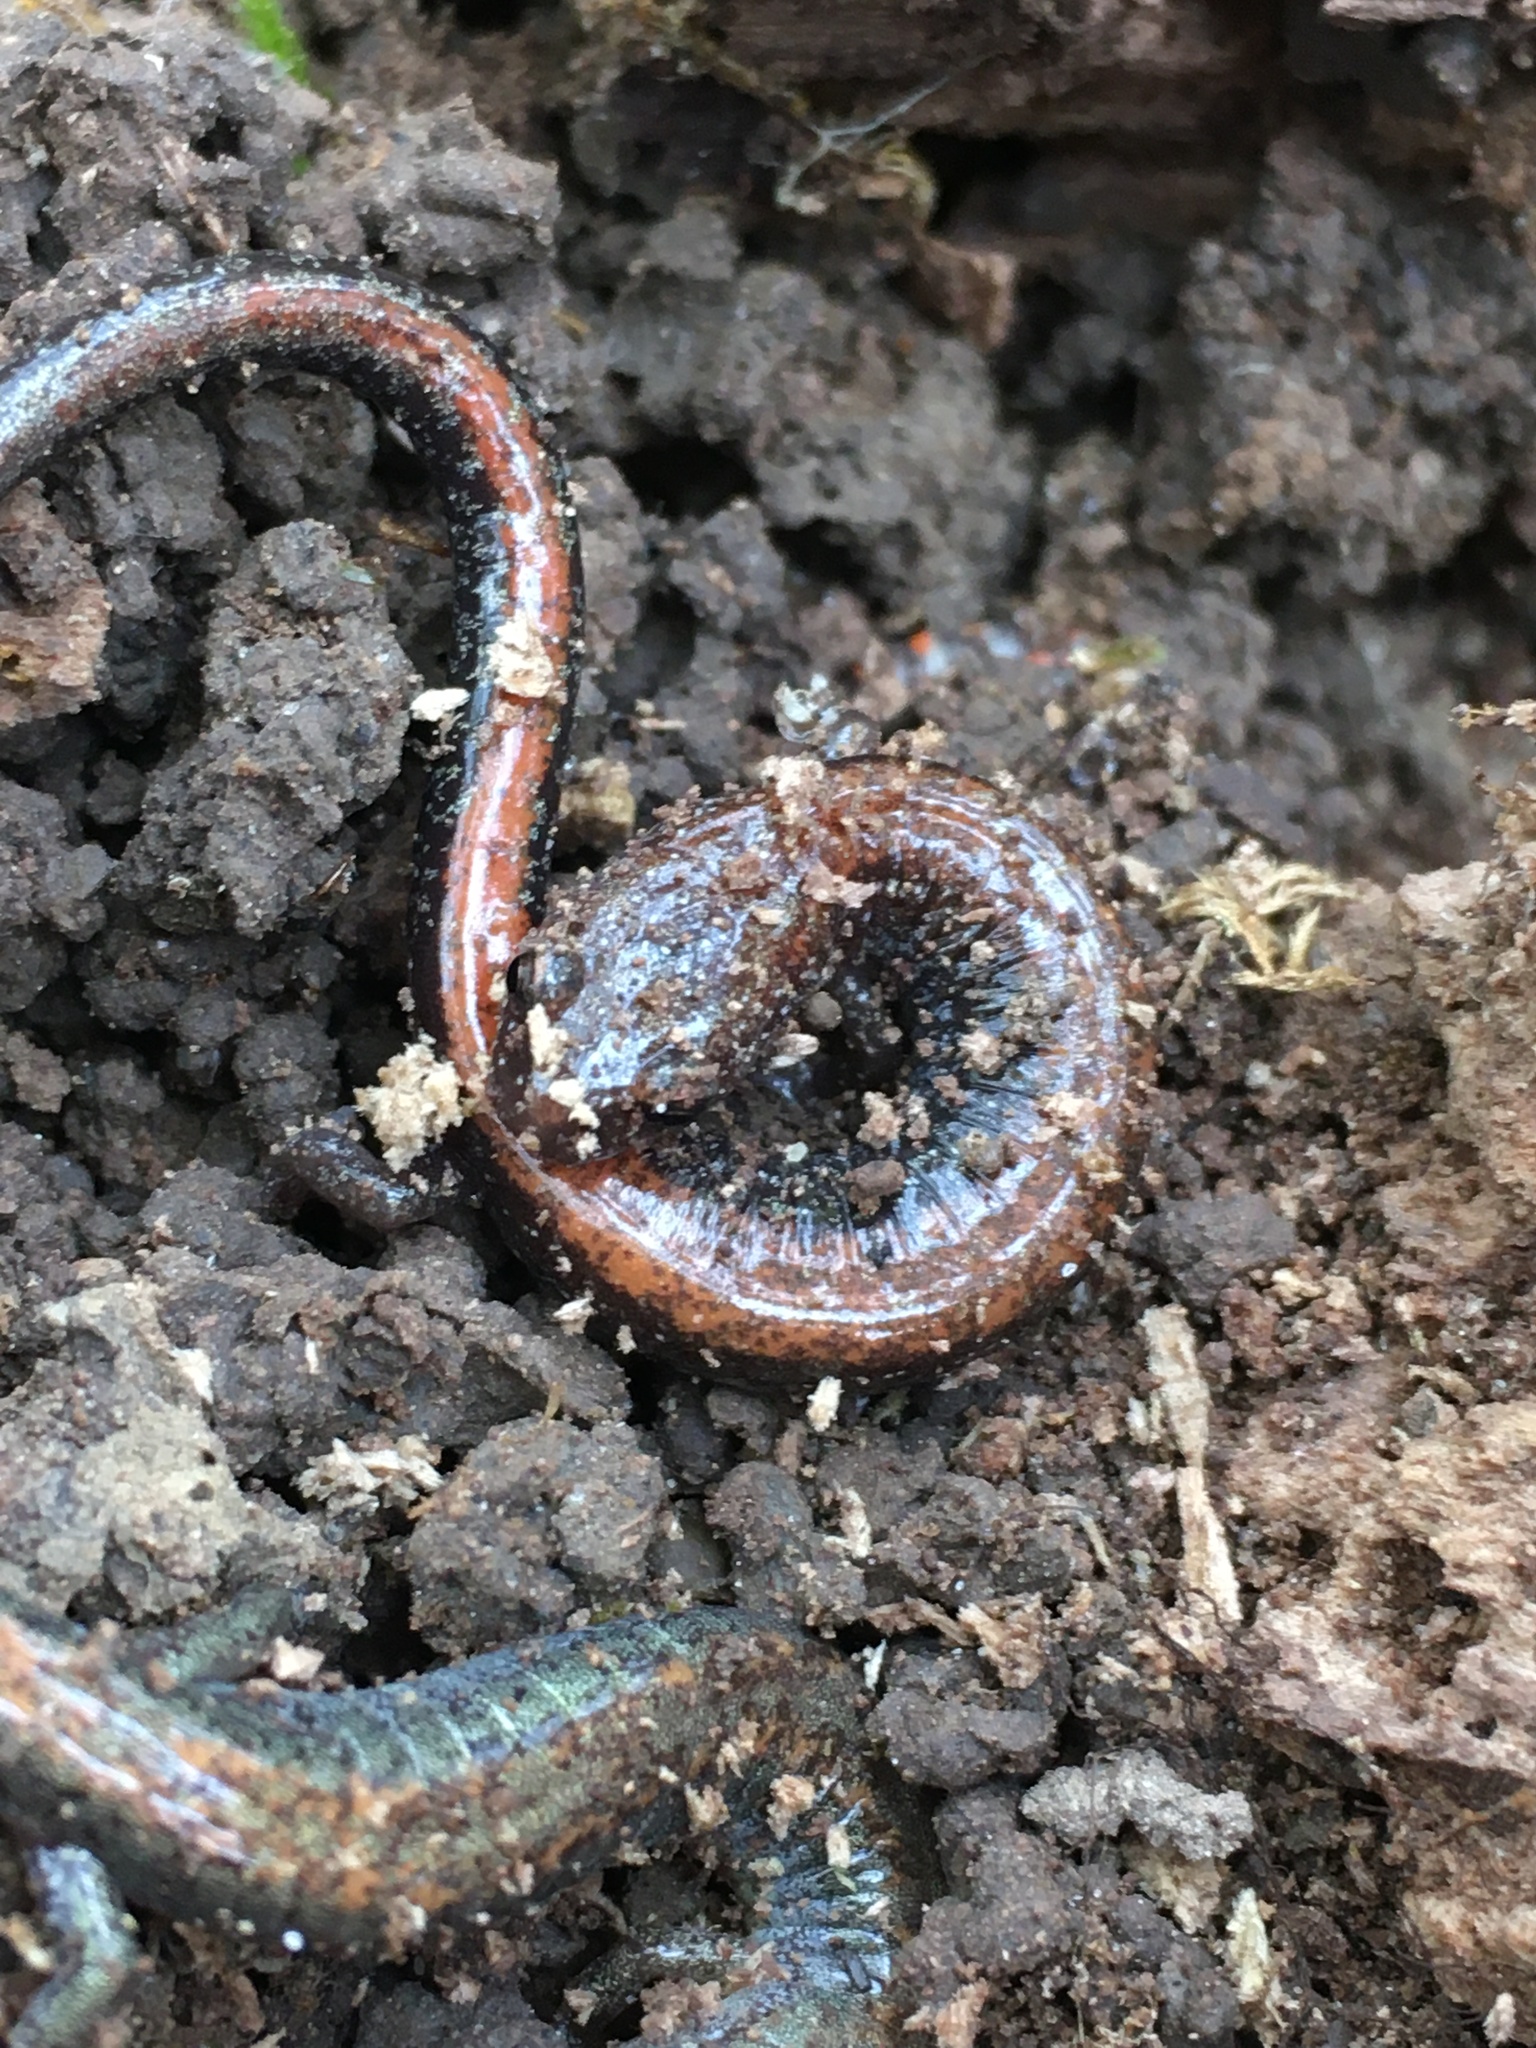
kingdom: Animalia
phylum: Chordata
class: Amphibia
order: Caudata
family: Plethodontidae
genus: Plethodon
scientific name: Plethodon cinereus
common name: Redback salamander
